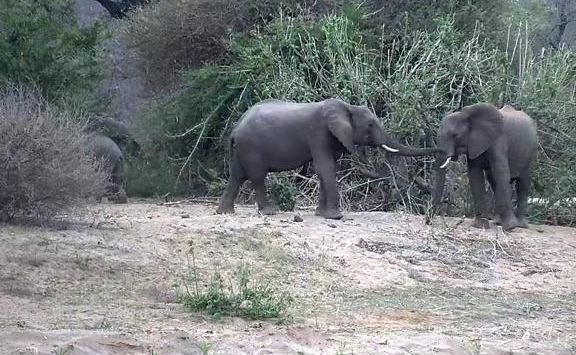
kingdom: Animalia
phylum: Chordata
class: Mammalia
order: Proboscidea
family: Elephantidae
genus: Loxodonta
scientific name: Loxodonta africana
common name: African elephant
